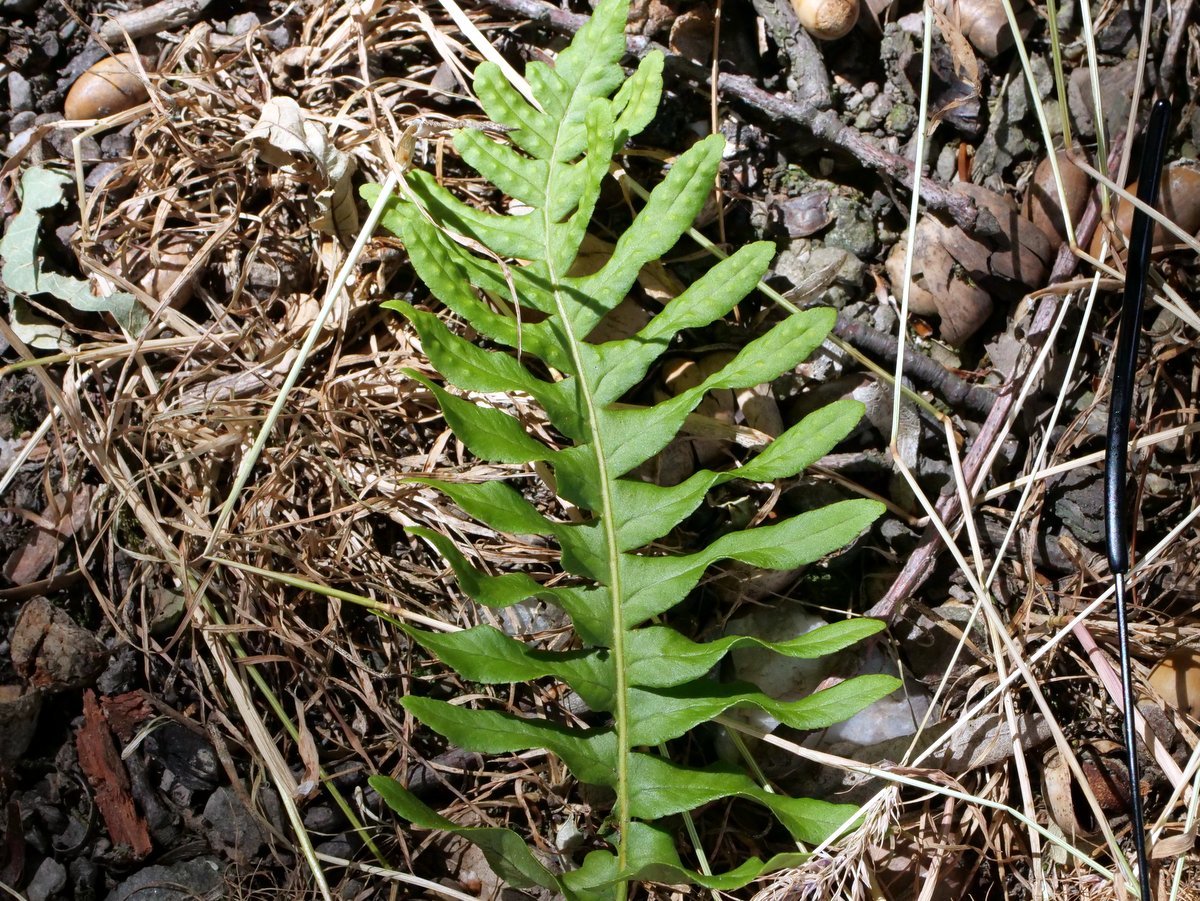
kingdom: Plantae
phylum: Tracheophyta
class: Polypodiopsida
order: Polypodiales
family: Polypodiaceae
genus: Polypodium
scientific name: Polypodium vulgare
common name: Common polypody
